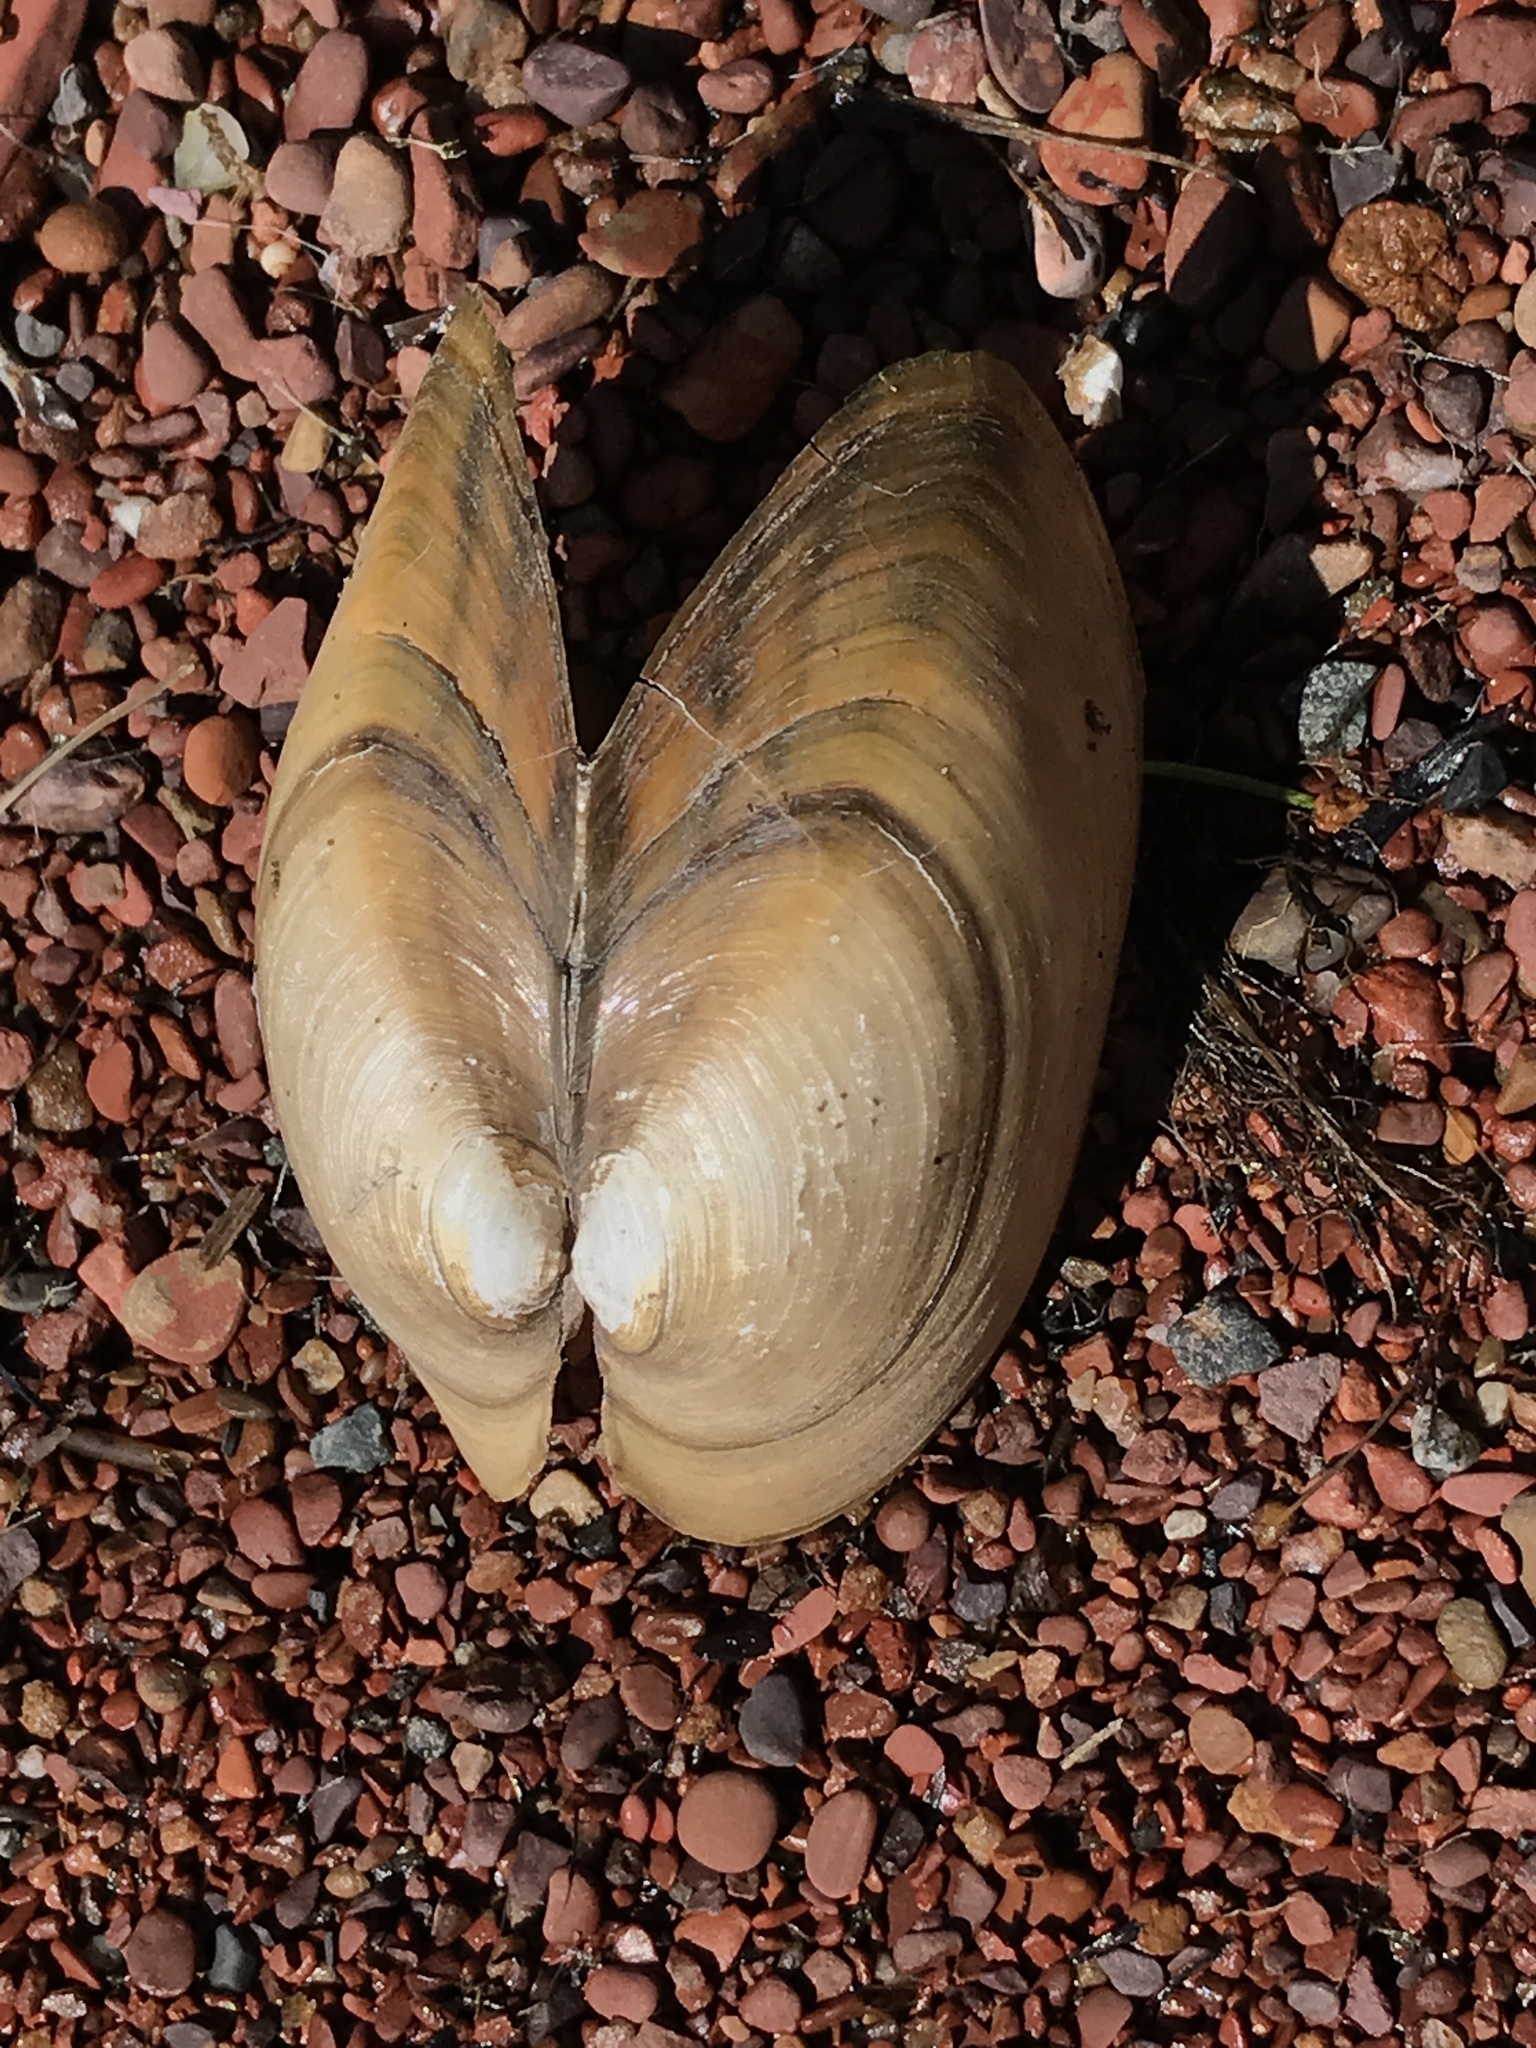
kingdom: Animalia
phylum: Mollusca
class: Bivalvia
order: Unionida
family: Unionidae
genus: Pyganodon
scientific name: Pyganodon grandis
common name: Giant floater
